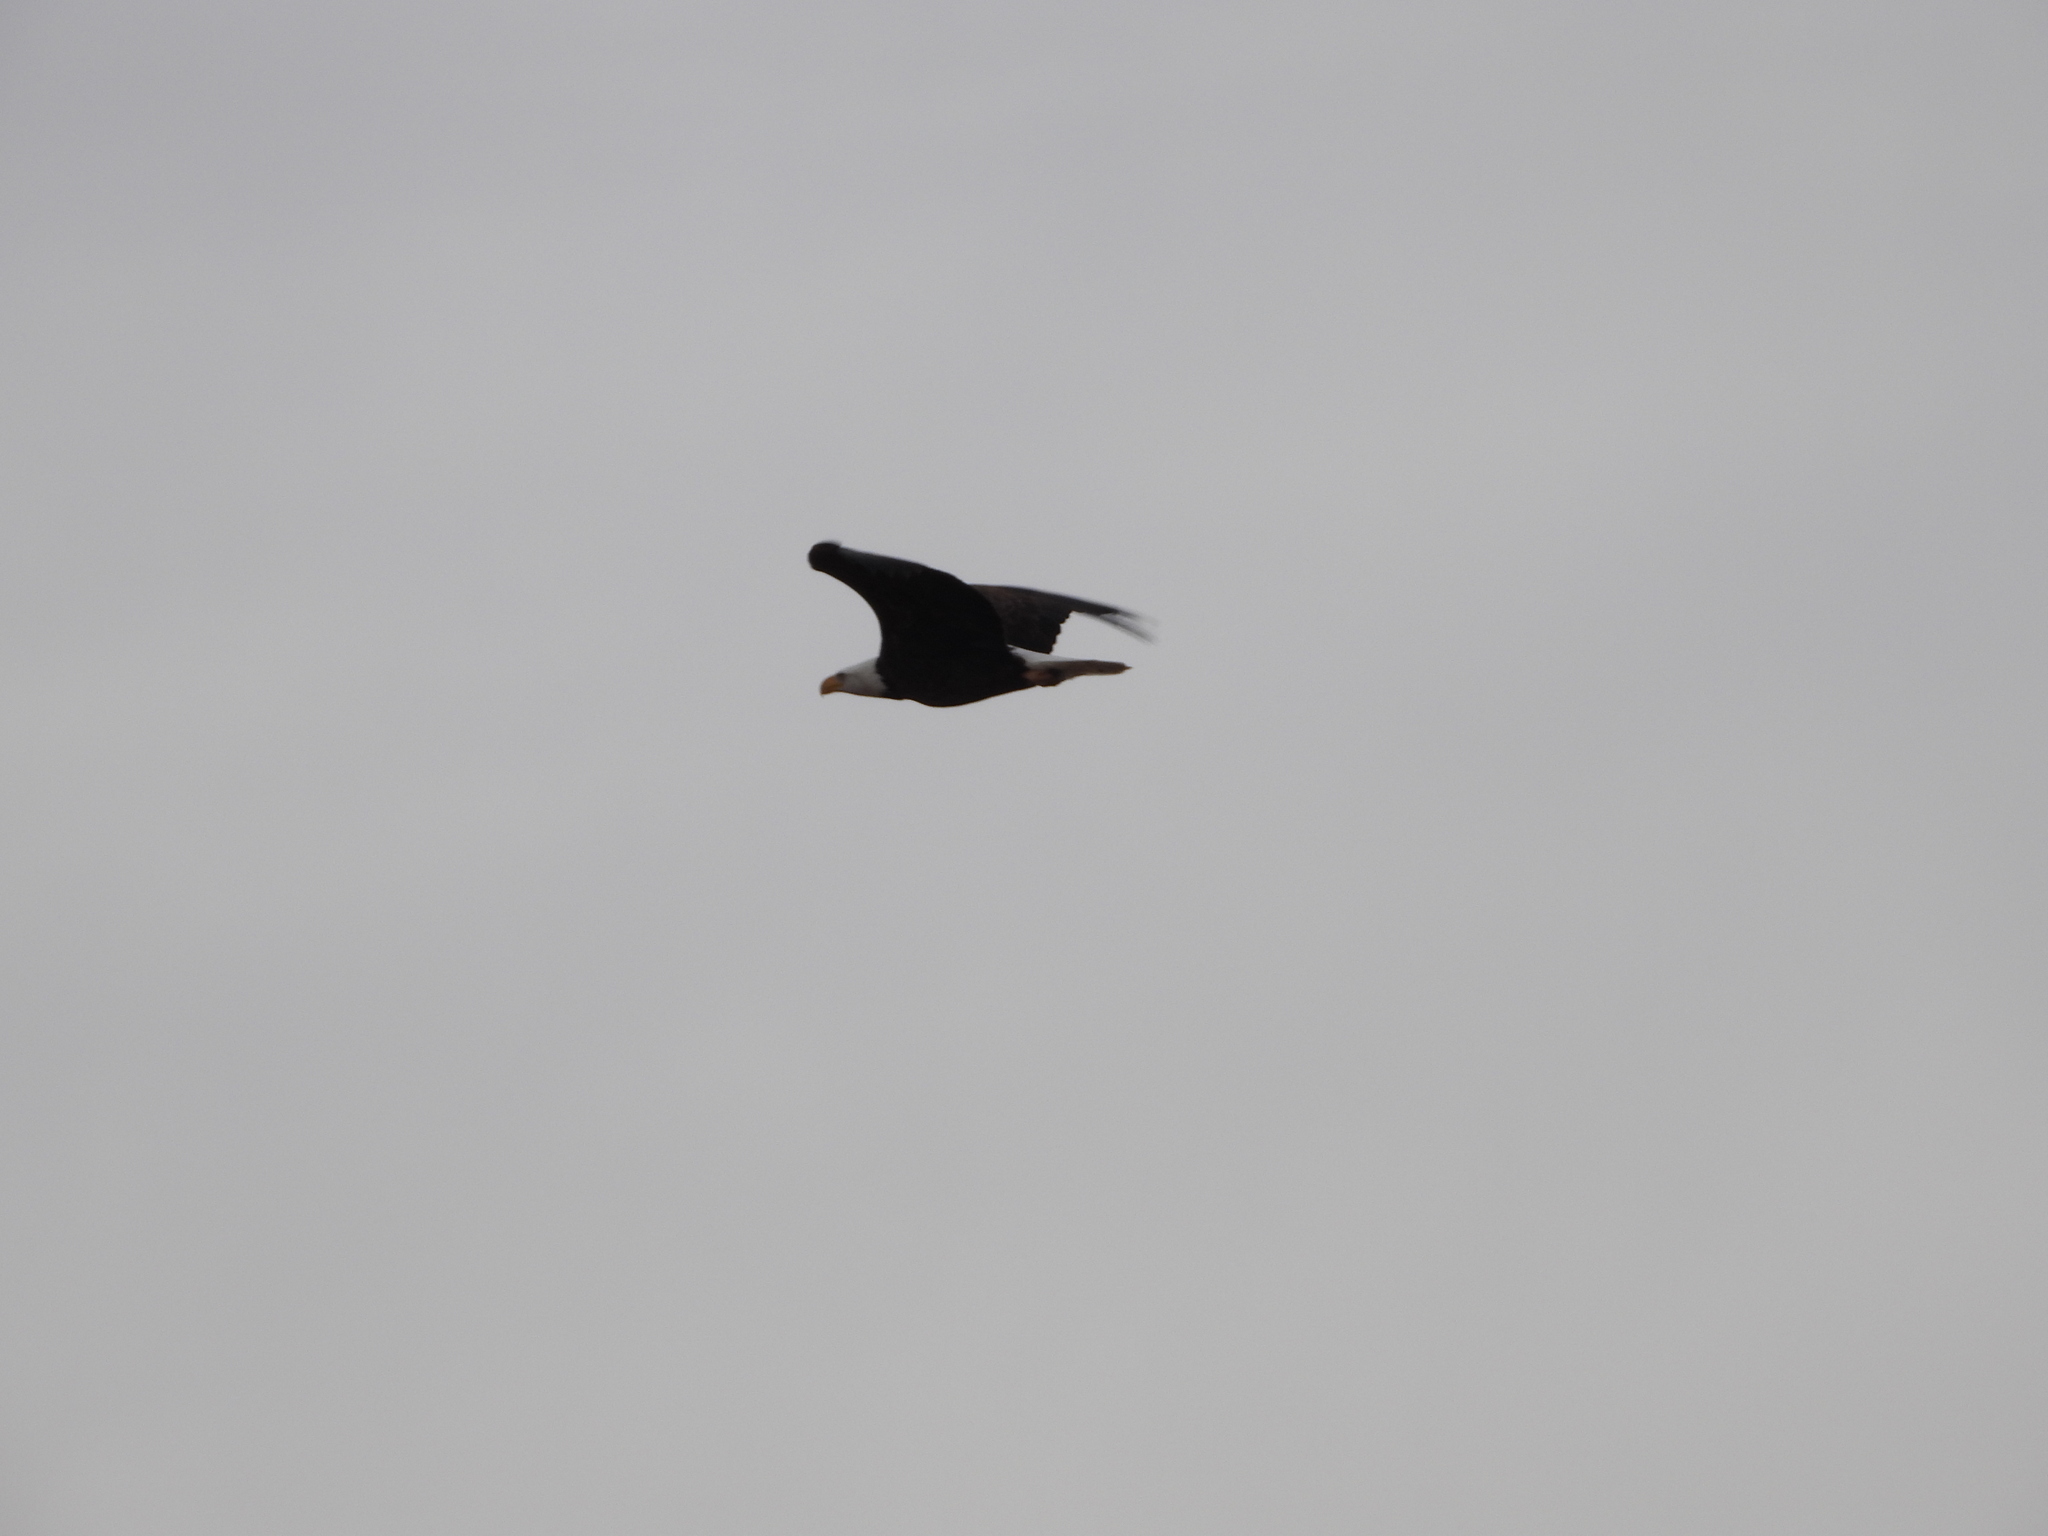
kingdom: Animalia
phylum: Chordata
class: Aves
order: Accipitriformes
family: Accipitridae
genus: Haliaeetus
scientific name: Haliaeetus leucocephalus
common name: Bald eagle
